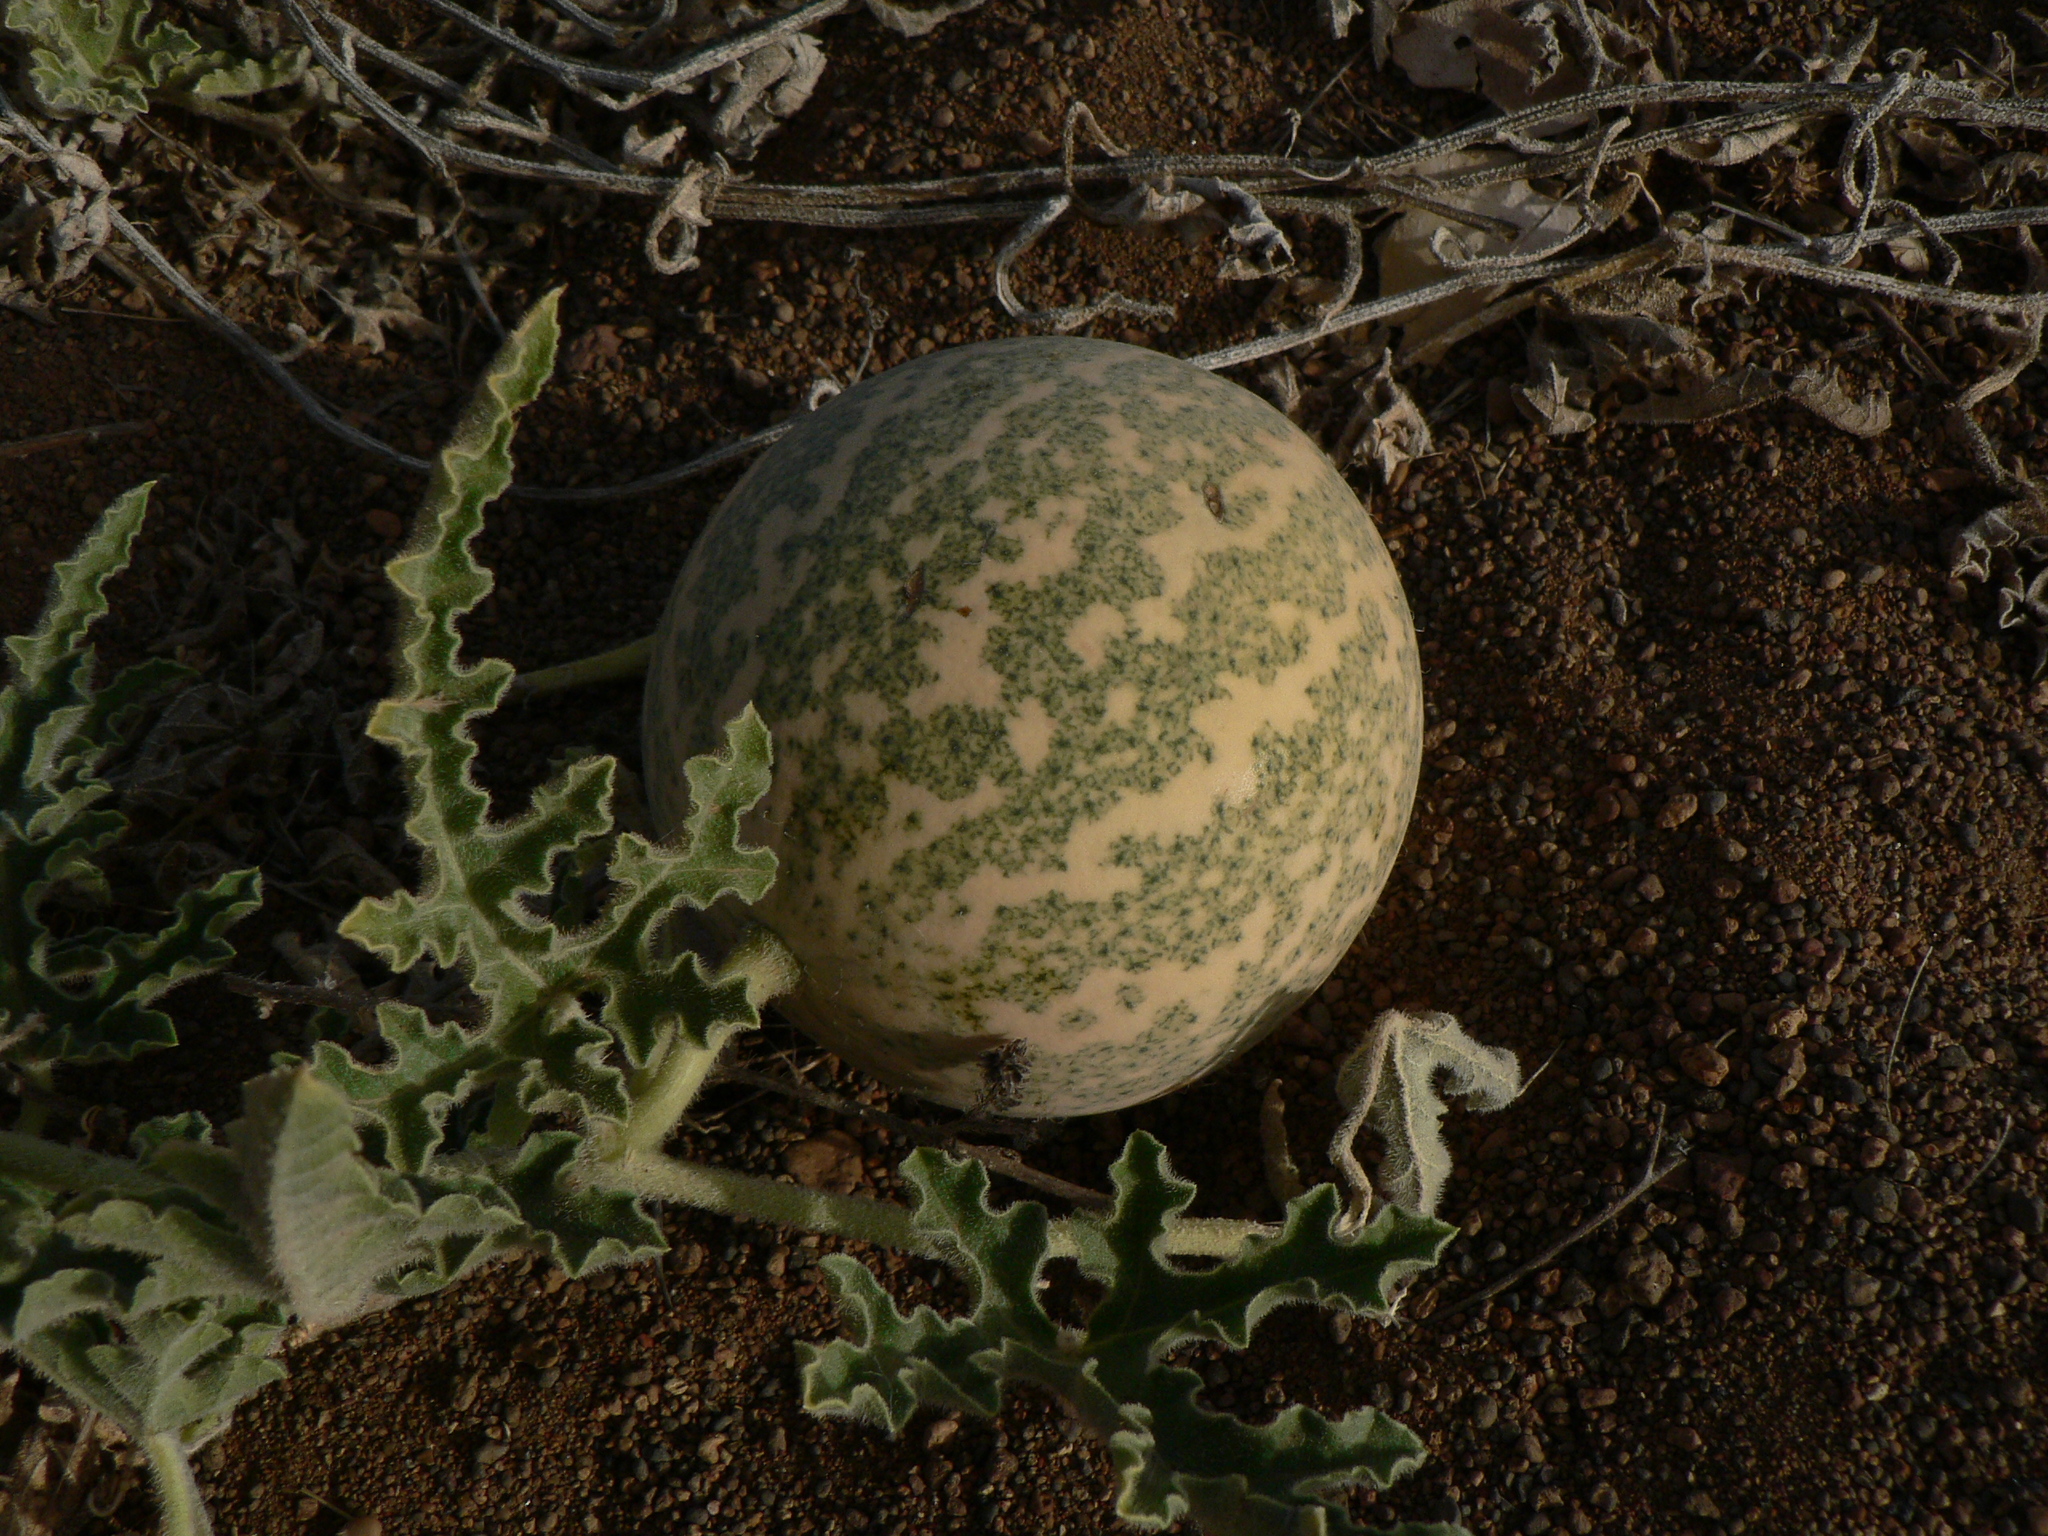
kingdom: Plantae
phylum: Tracheophyta
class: Magnoliopsida
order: Cucurbitales
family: Cucurbitaceae
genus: Citrullus
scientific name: Citrullus colocynthis
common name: Colocynth
